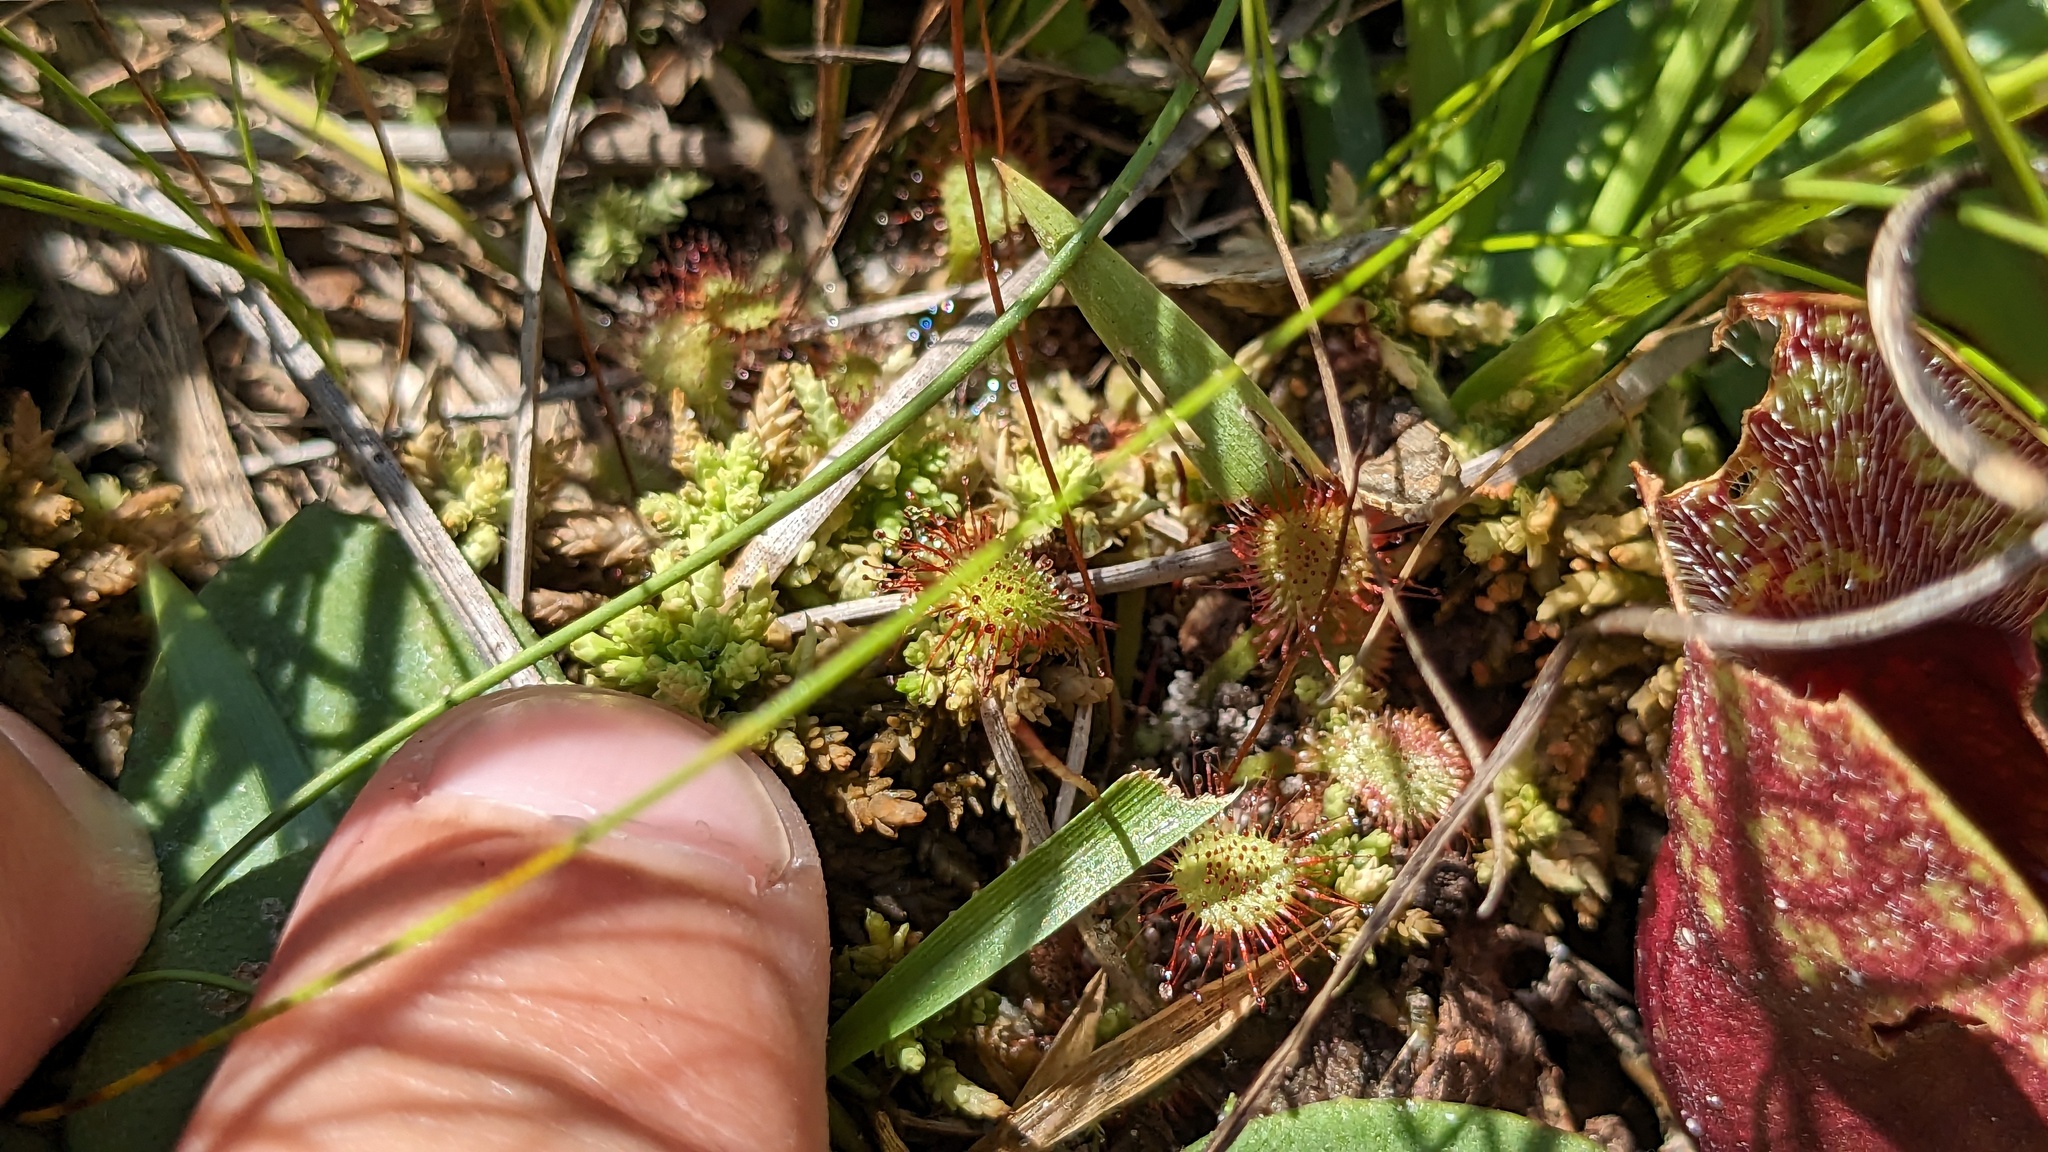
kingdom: Plantae
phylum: Tracheophyta
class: Magnoliopsida
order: Caryophyllales
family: Droseraceae
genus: Drosera
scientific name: Drosera capillaris
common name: Pink sundew
